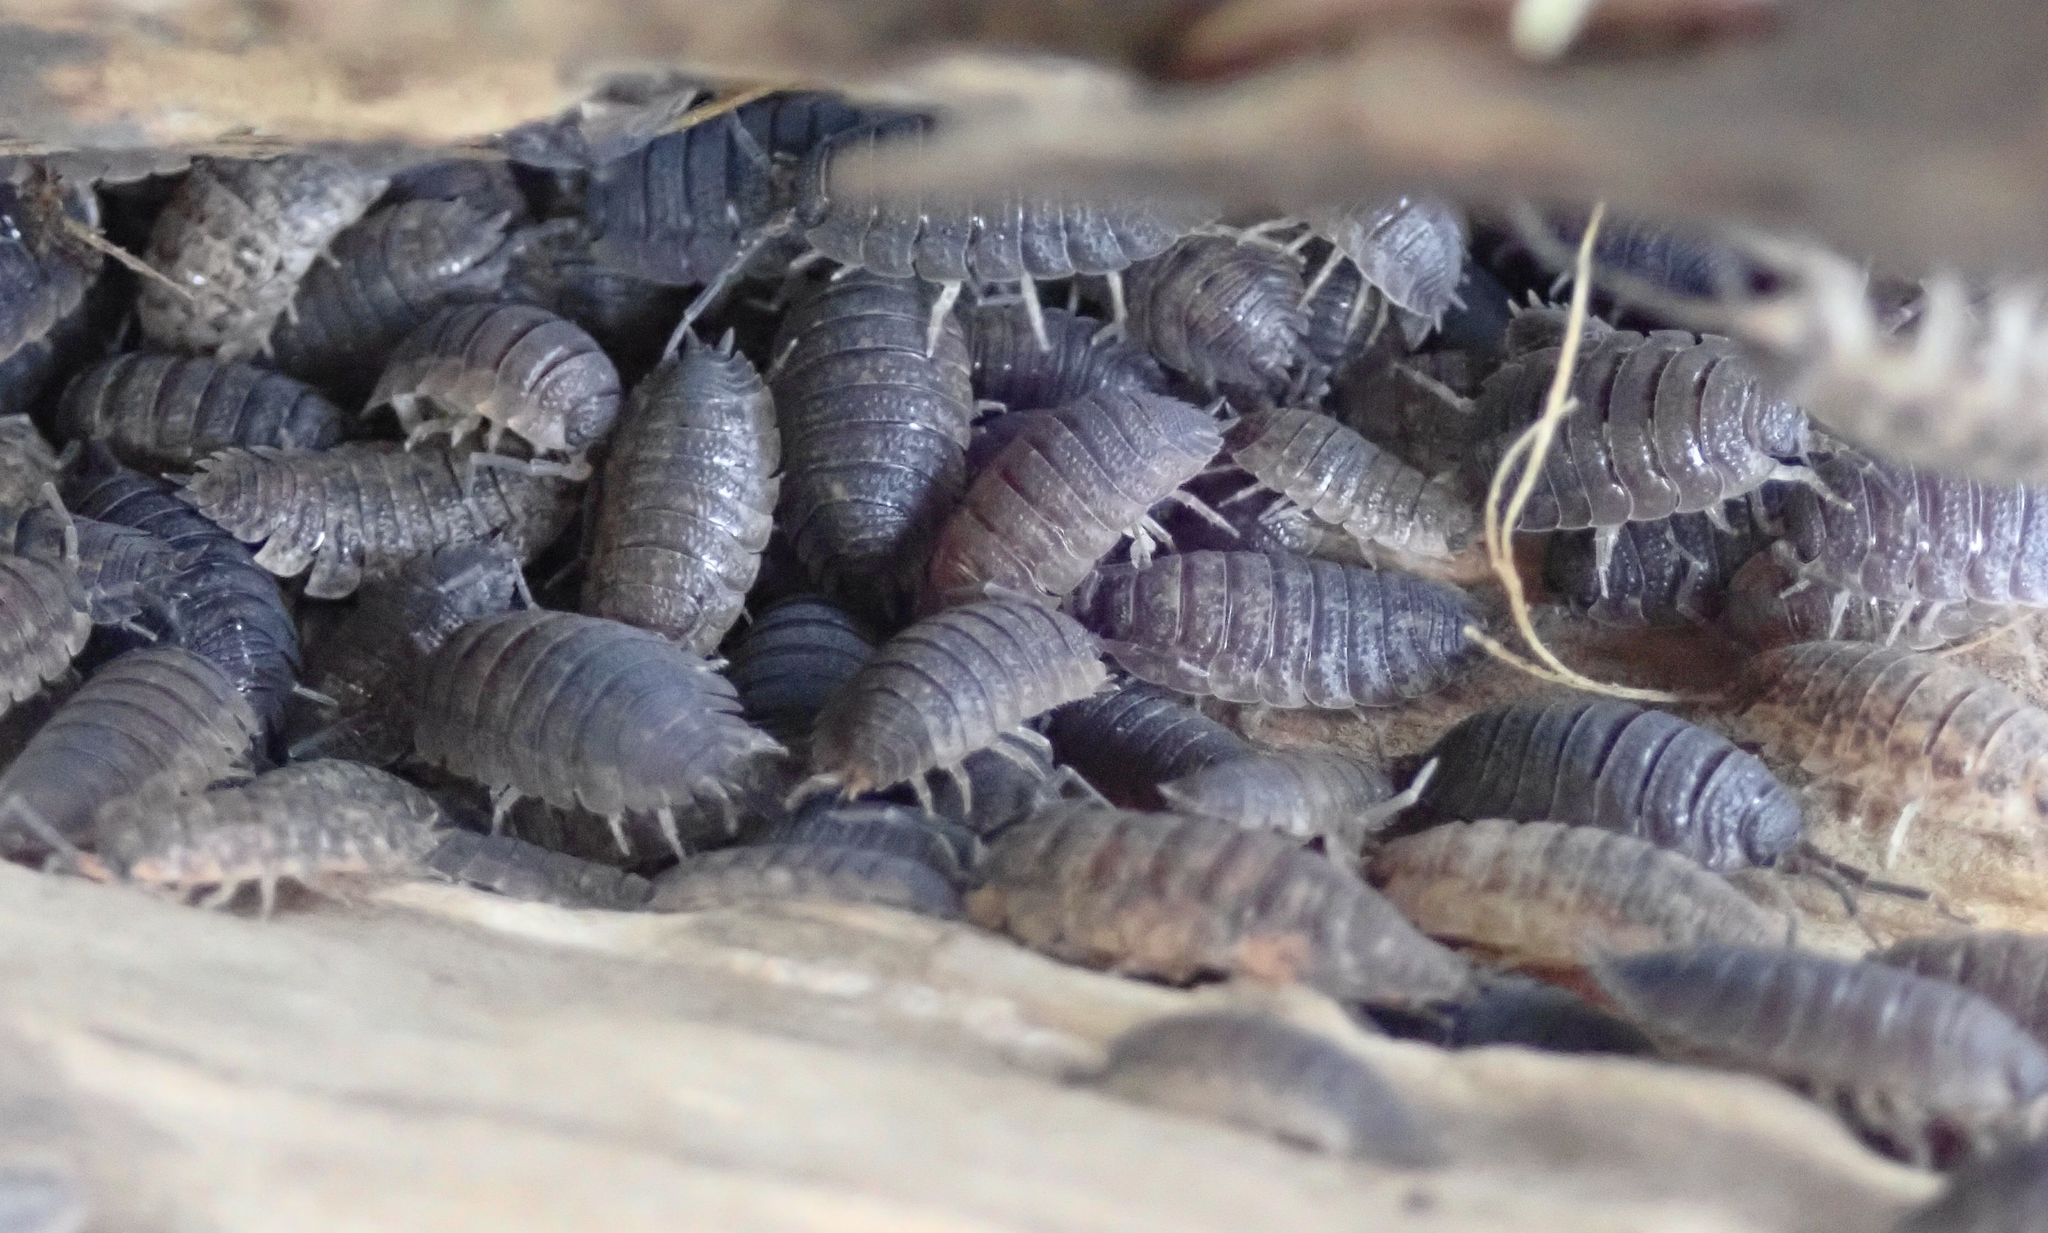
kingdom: Animalia
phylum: Arthropoda
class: Malacostraca
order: Isopoda
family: Porcellionidae
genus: Porcellio
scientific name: Porcellio scaber
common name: Common rough woodlouse
